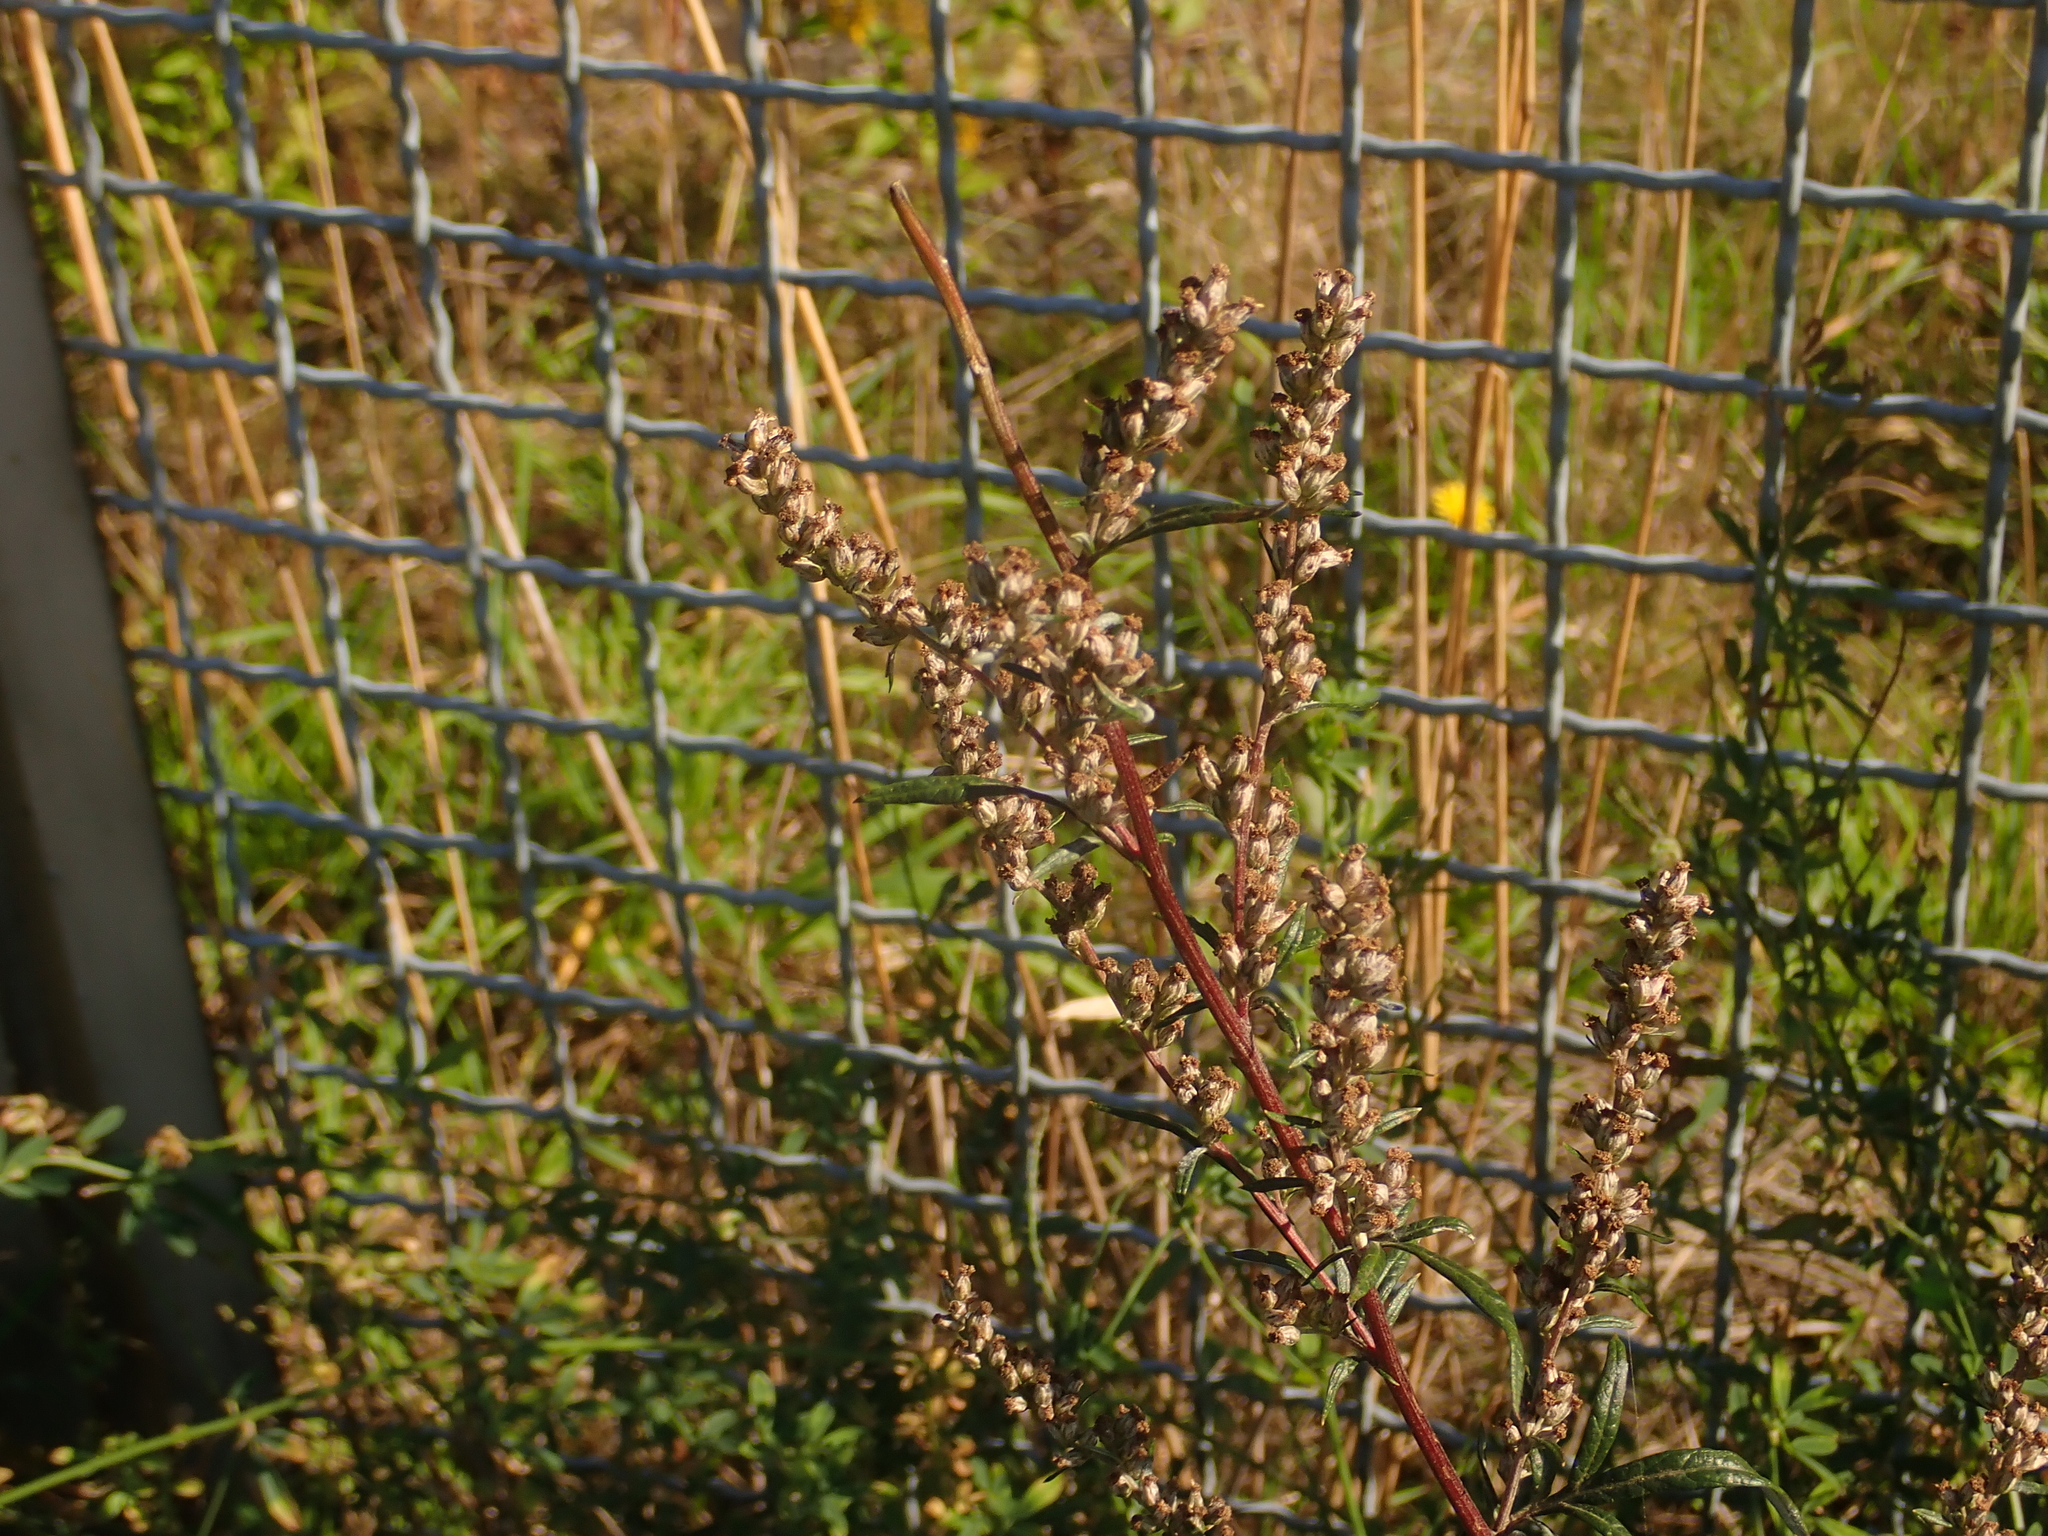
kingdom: Plantae
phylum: Tracheophyta
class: Magnoliopsida
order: Asterales
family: Asteraceae
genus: Artemisia
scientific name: Artemisia vulgaris
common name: Mugwort
